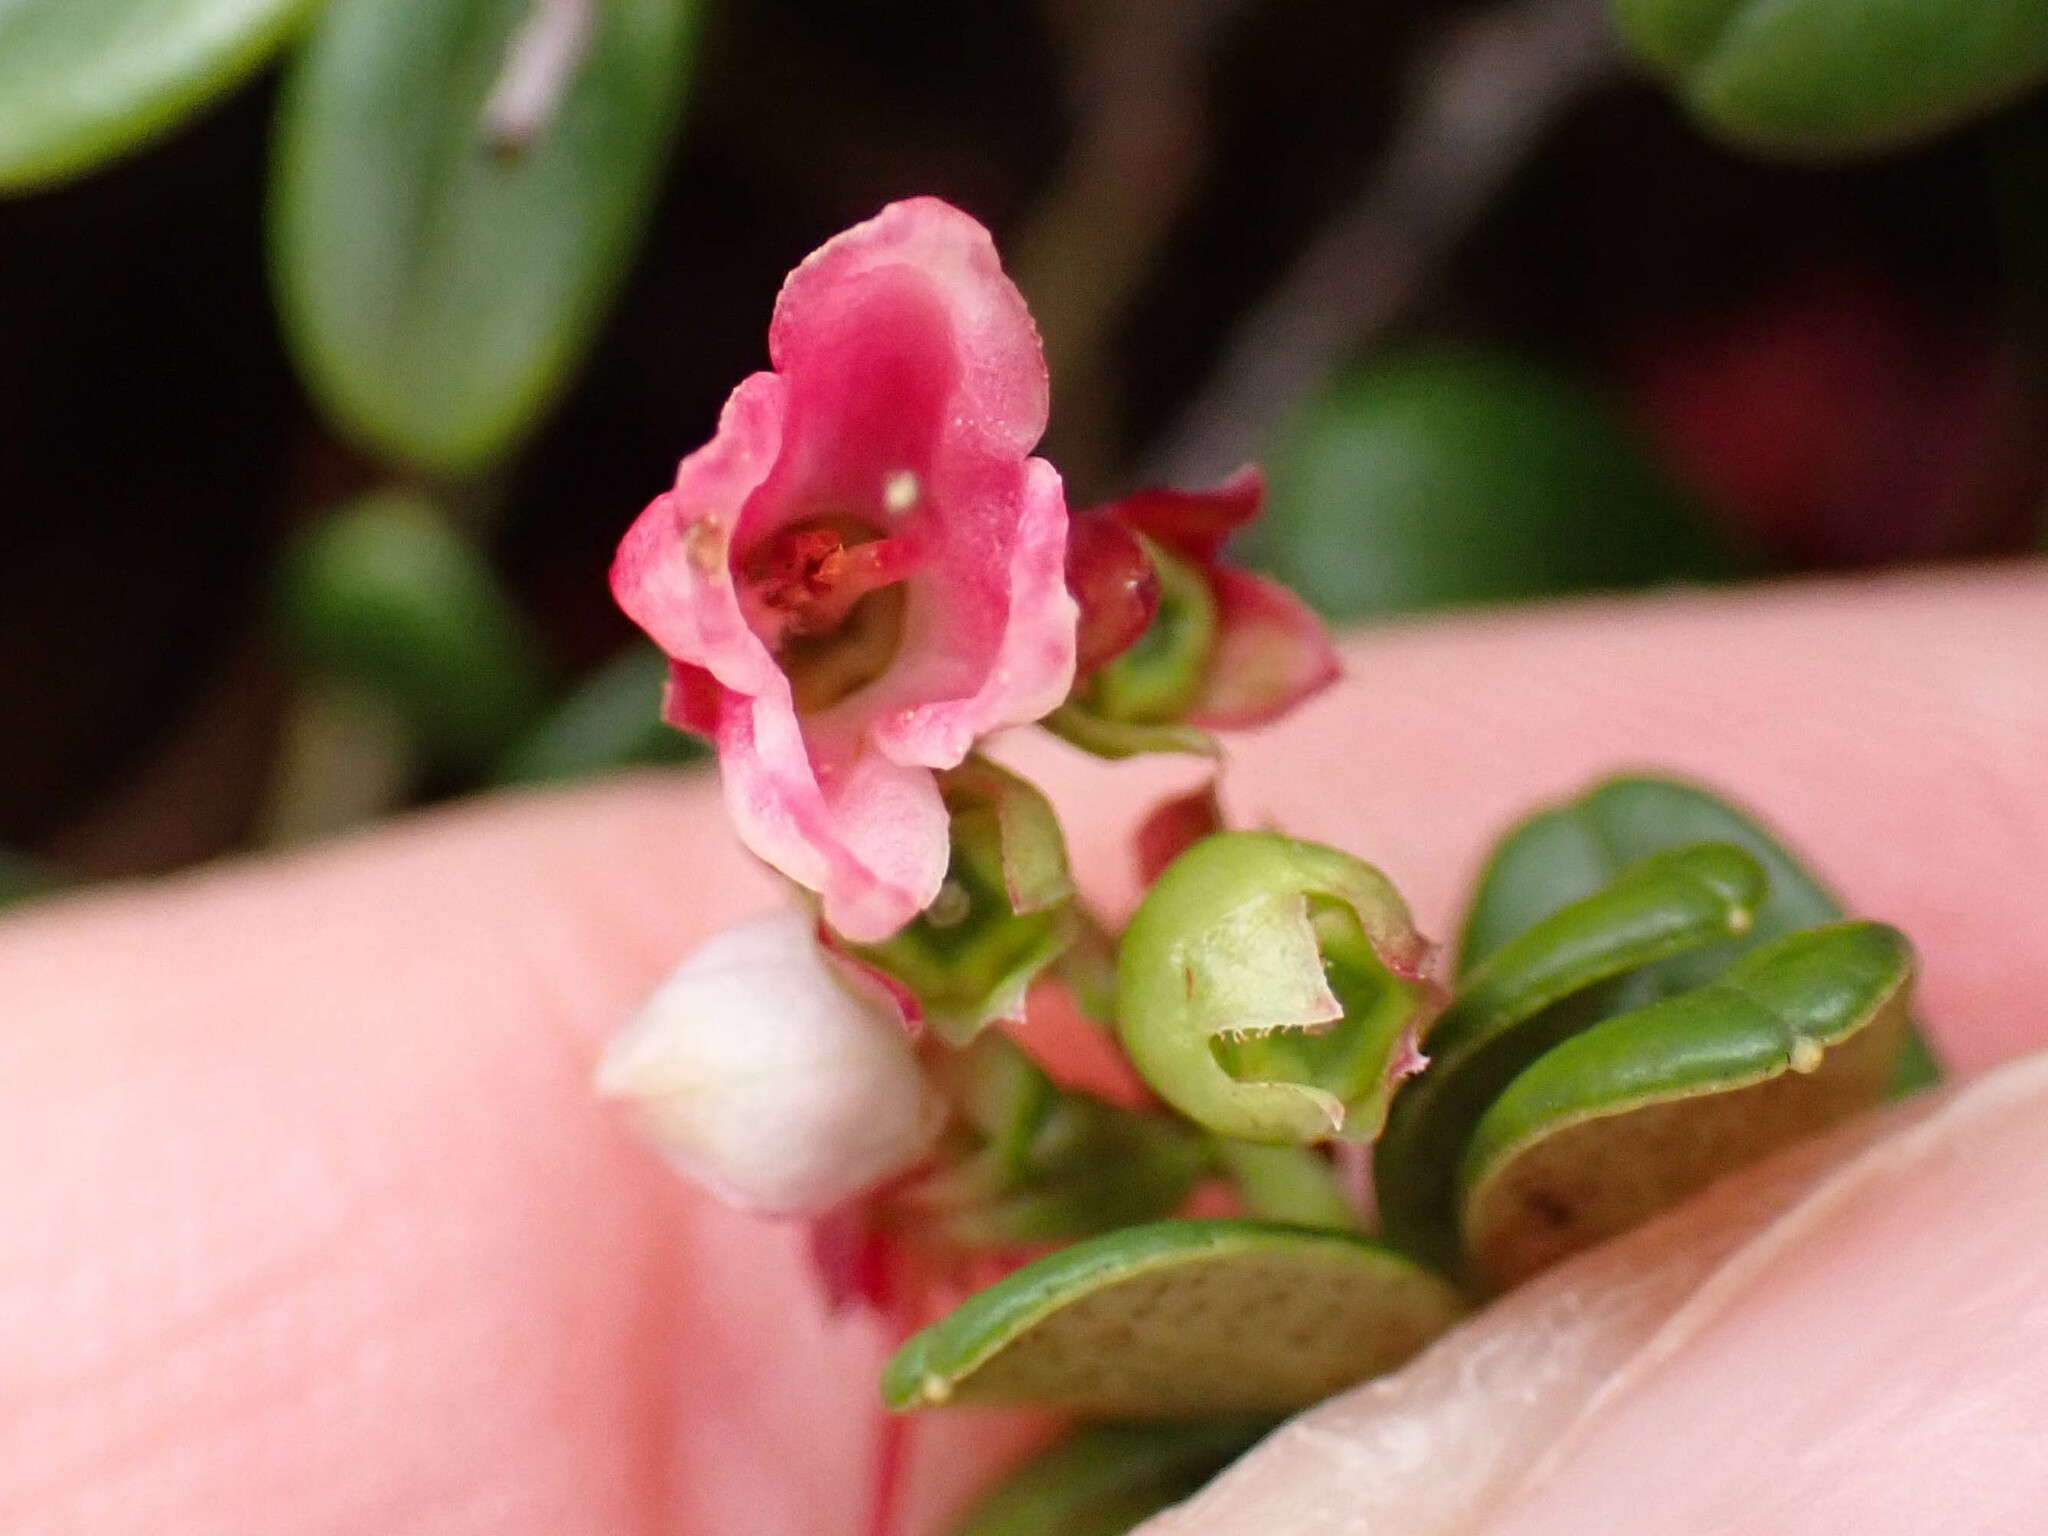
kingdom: Plantae
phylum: Tracheophyta
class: Magnoliopsida
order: Ericales
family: Ericaceae
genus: Vaccinium
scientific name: Vaccinium vitis-idaea
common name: Cowberry
